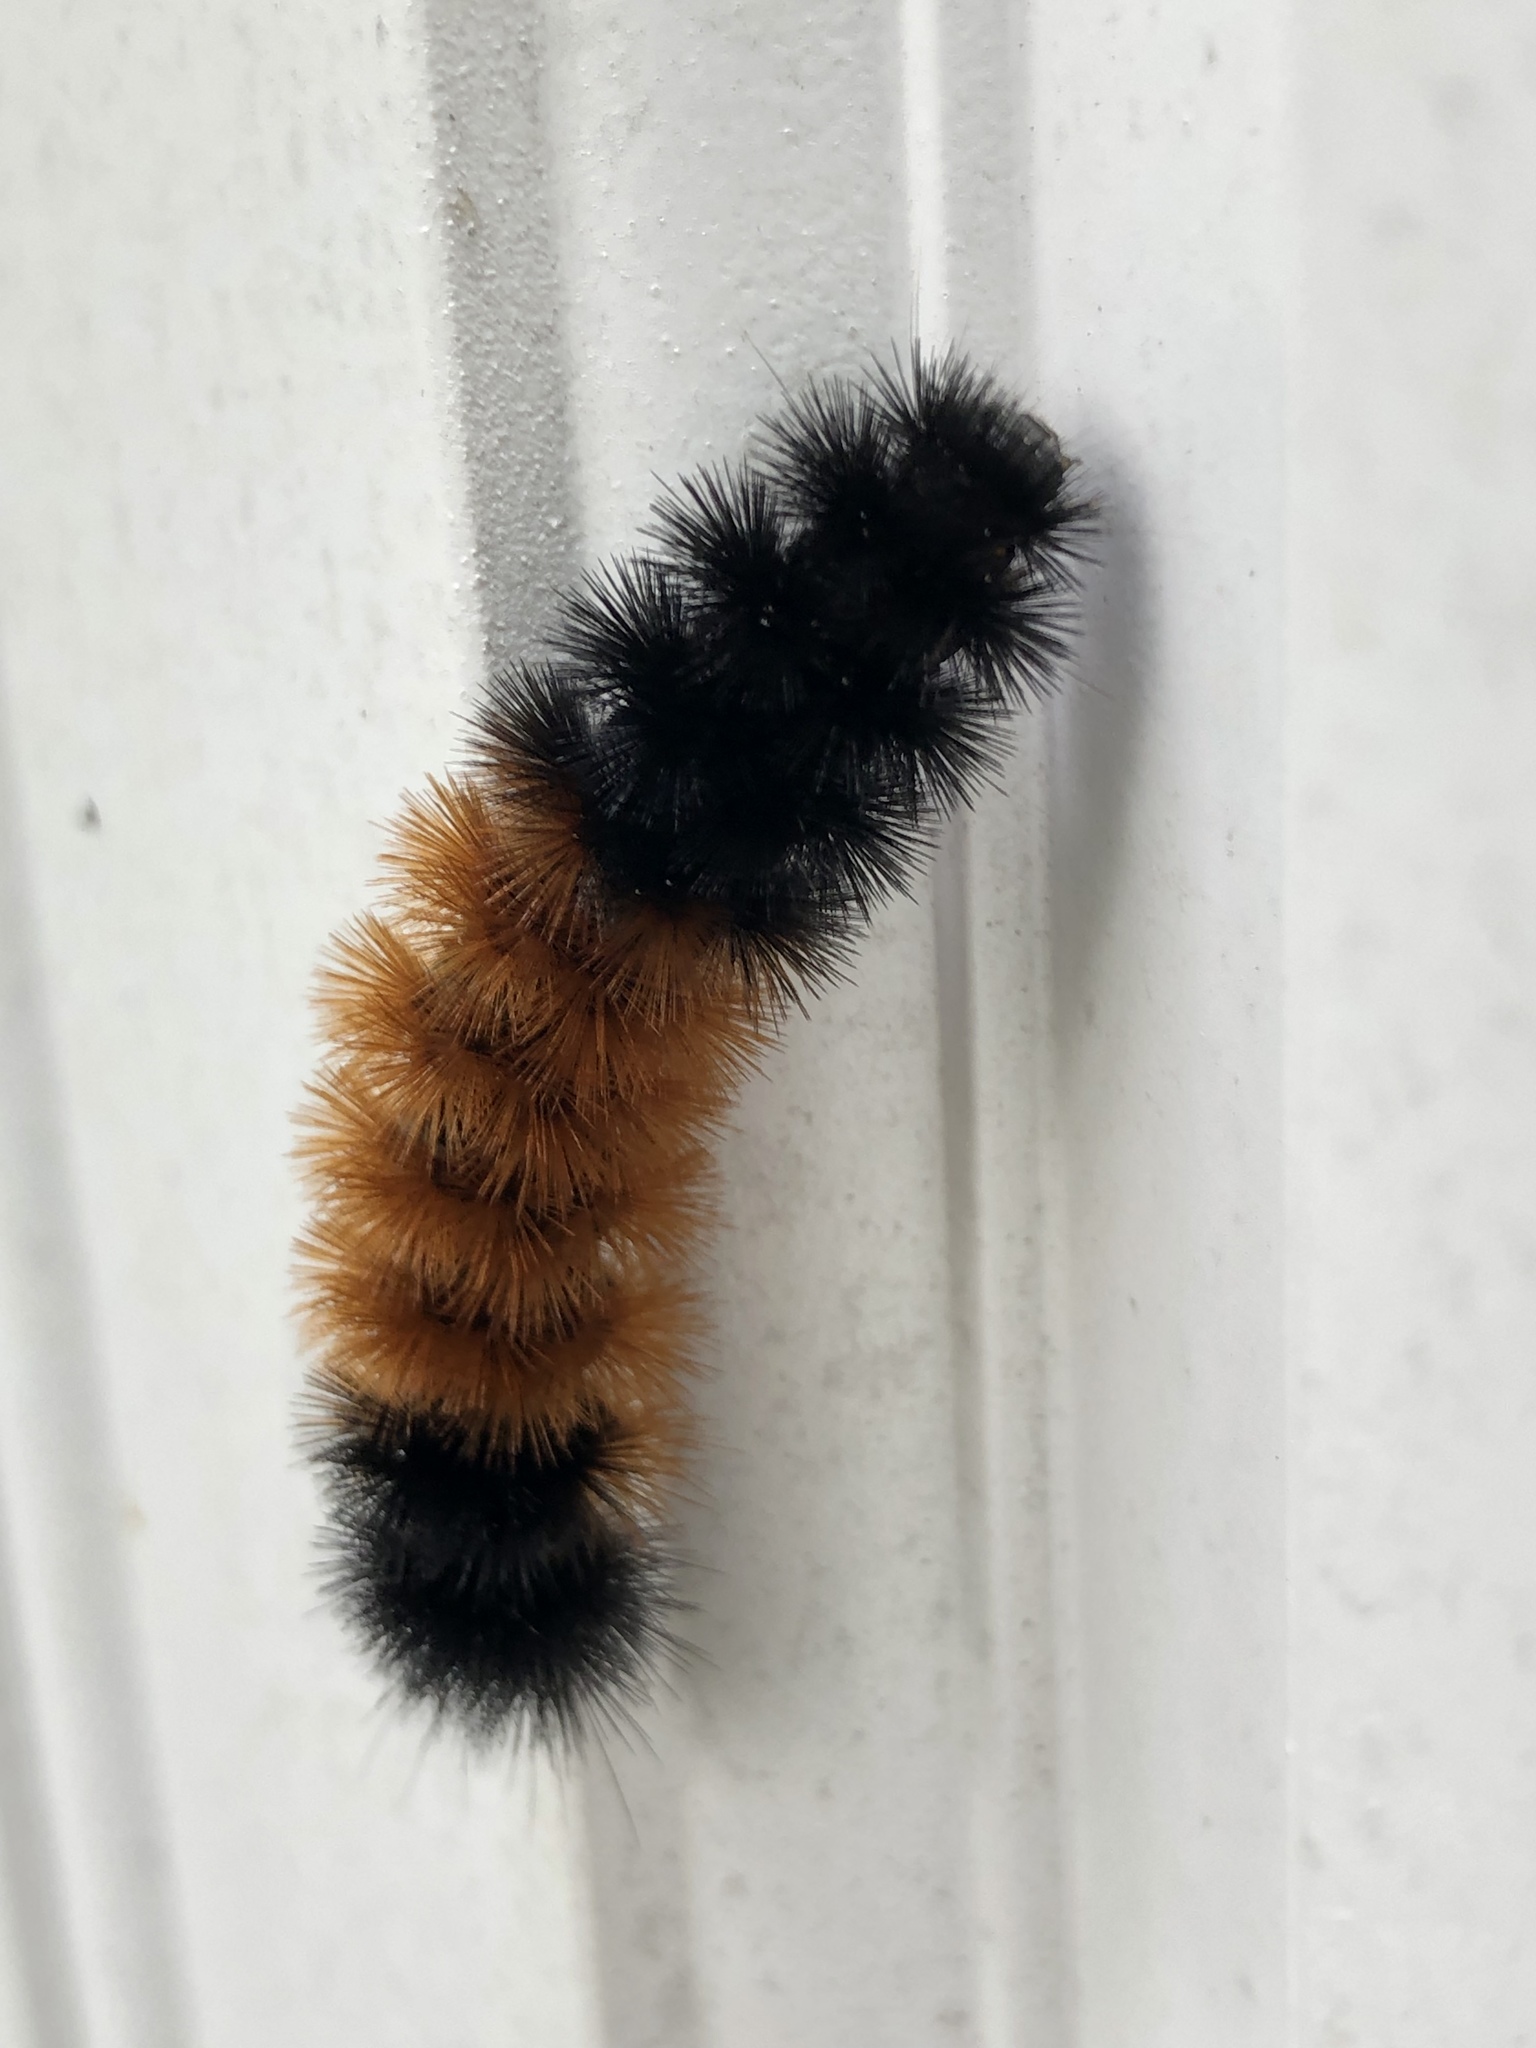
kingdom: Animalia
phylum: Arthropoda
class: Insecta
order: Lepidoptera
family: Erebidae
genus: Pyrrharctia
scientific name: Pyrrharctia isabella
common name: Isabella tiger moth
